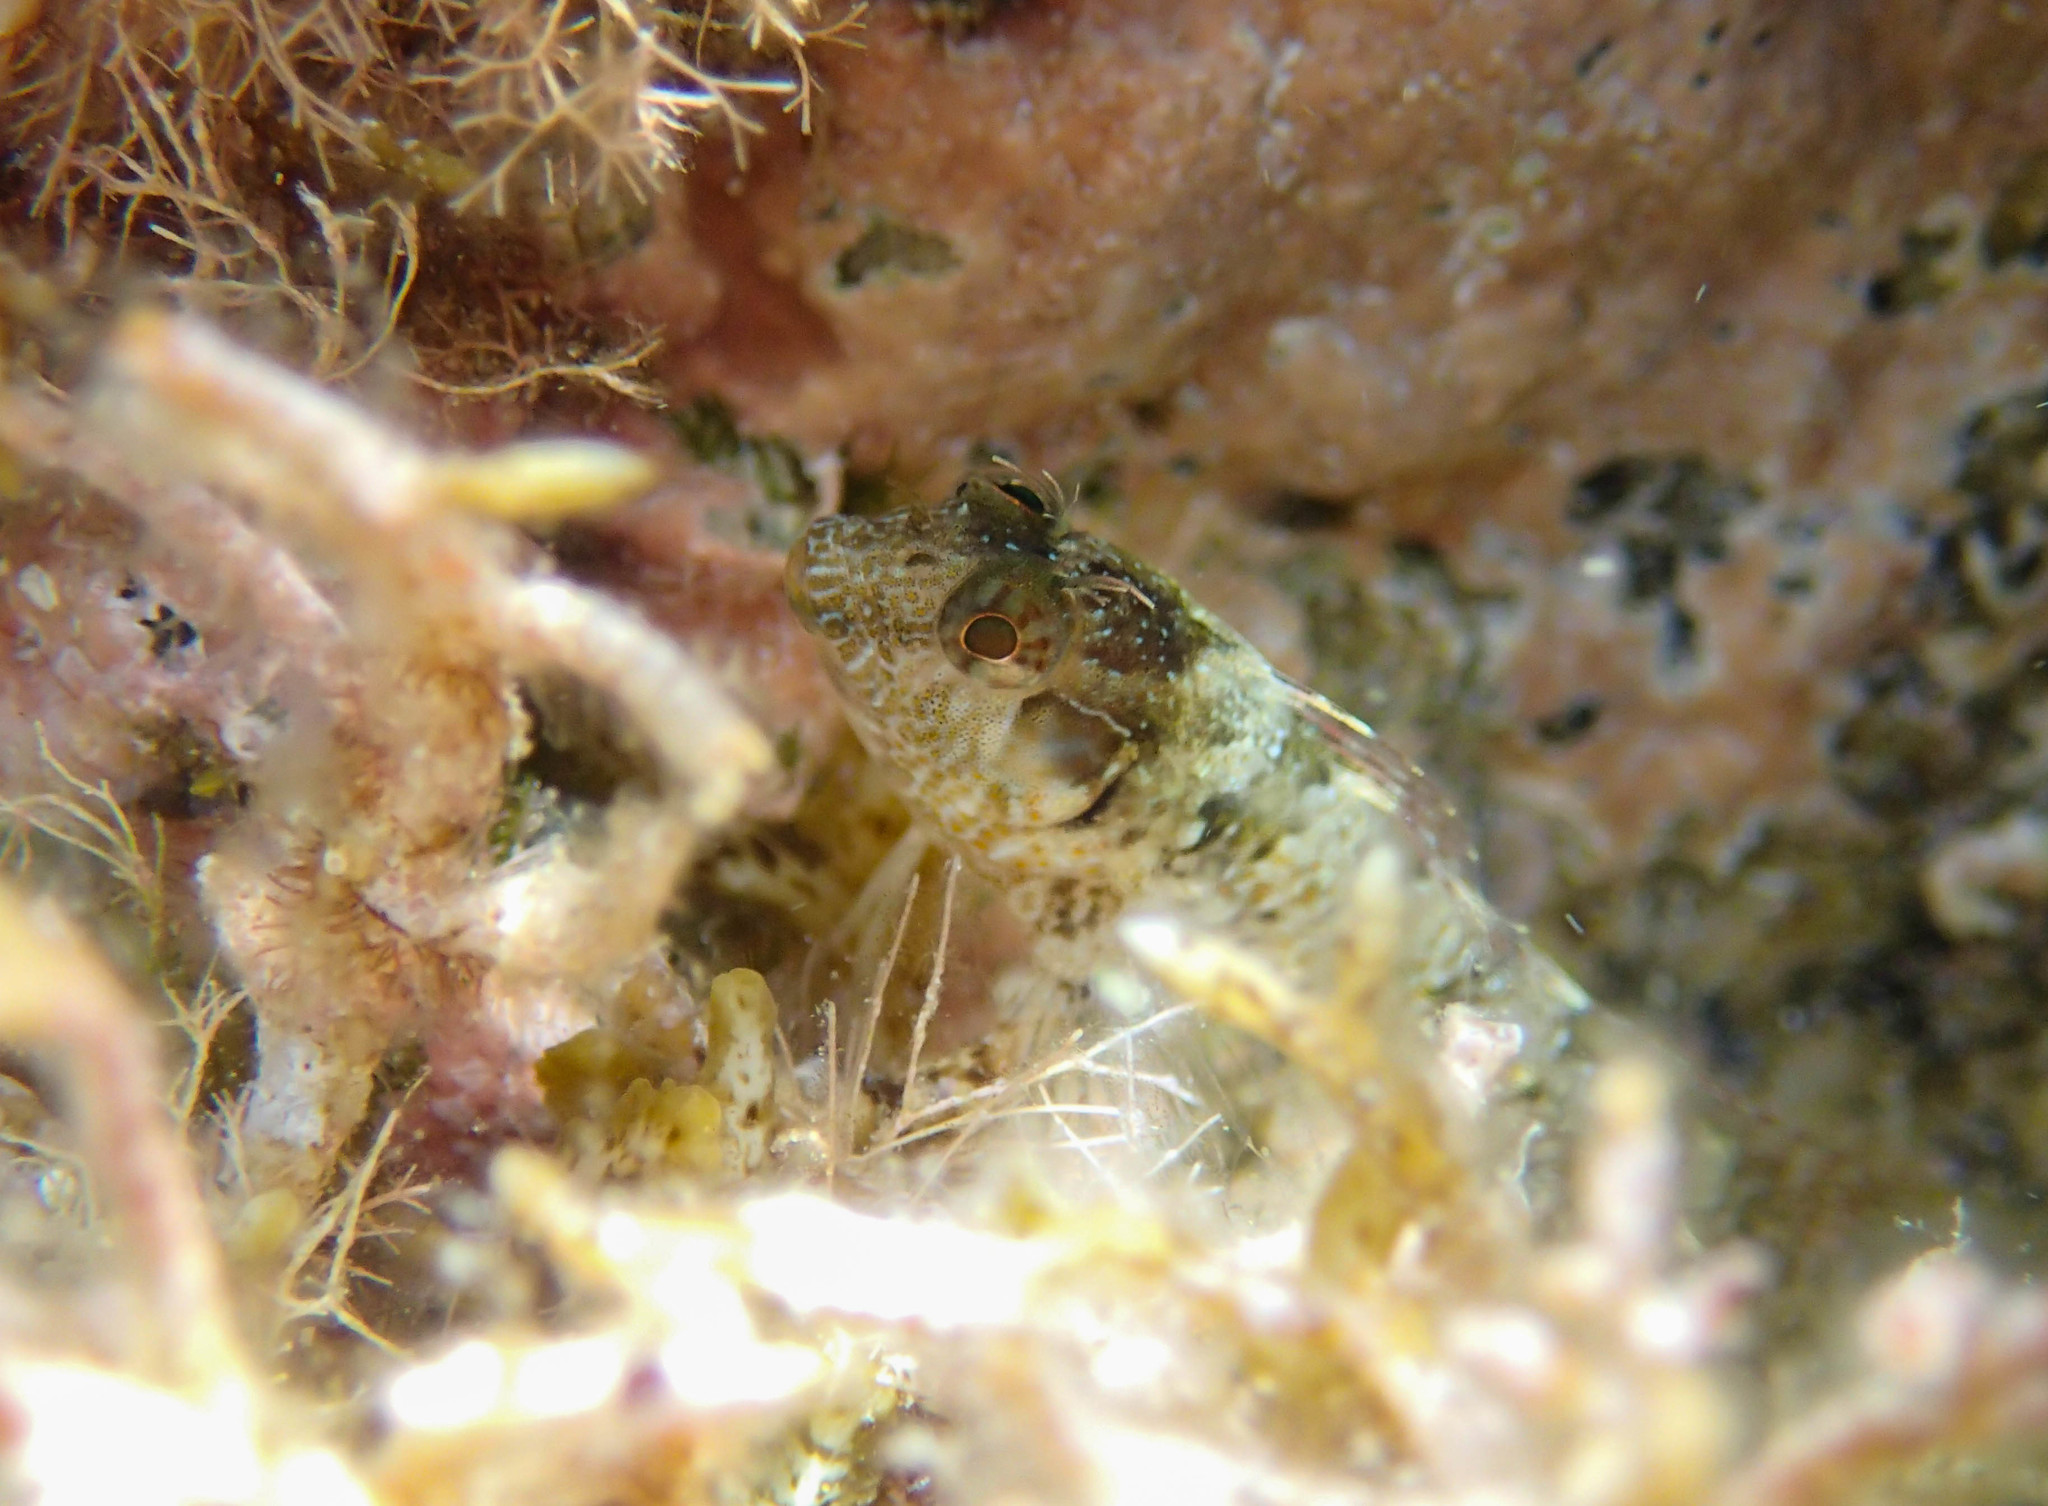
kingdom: Animalia
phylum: Chordata
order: Perciformes
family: Blenniidae
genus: Parablennius
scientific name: Parablennius incognitus
